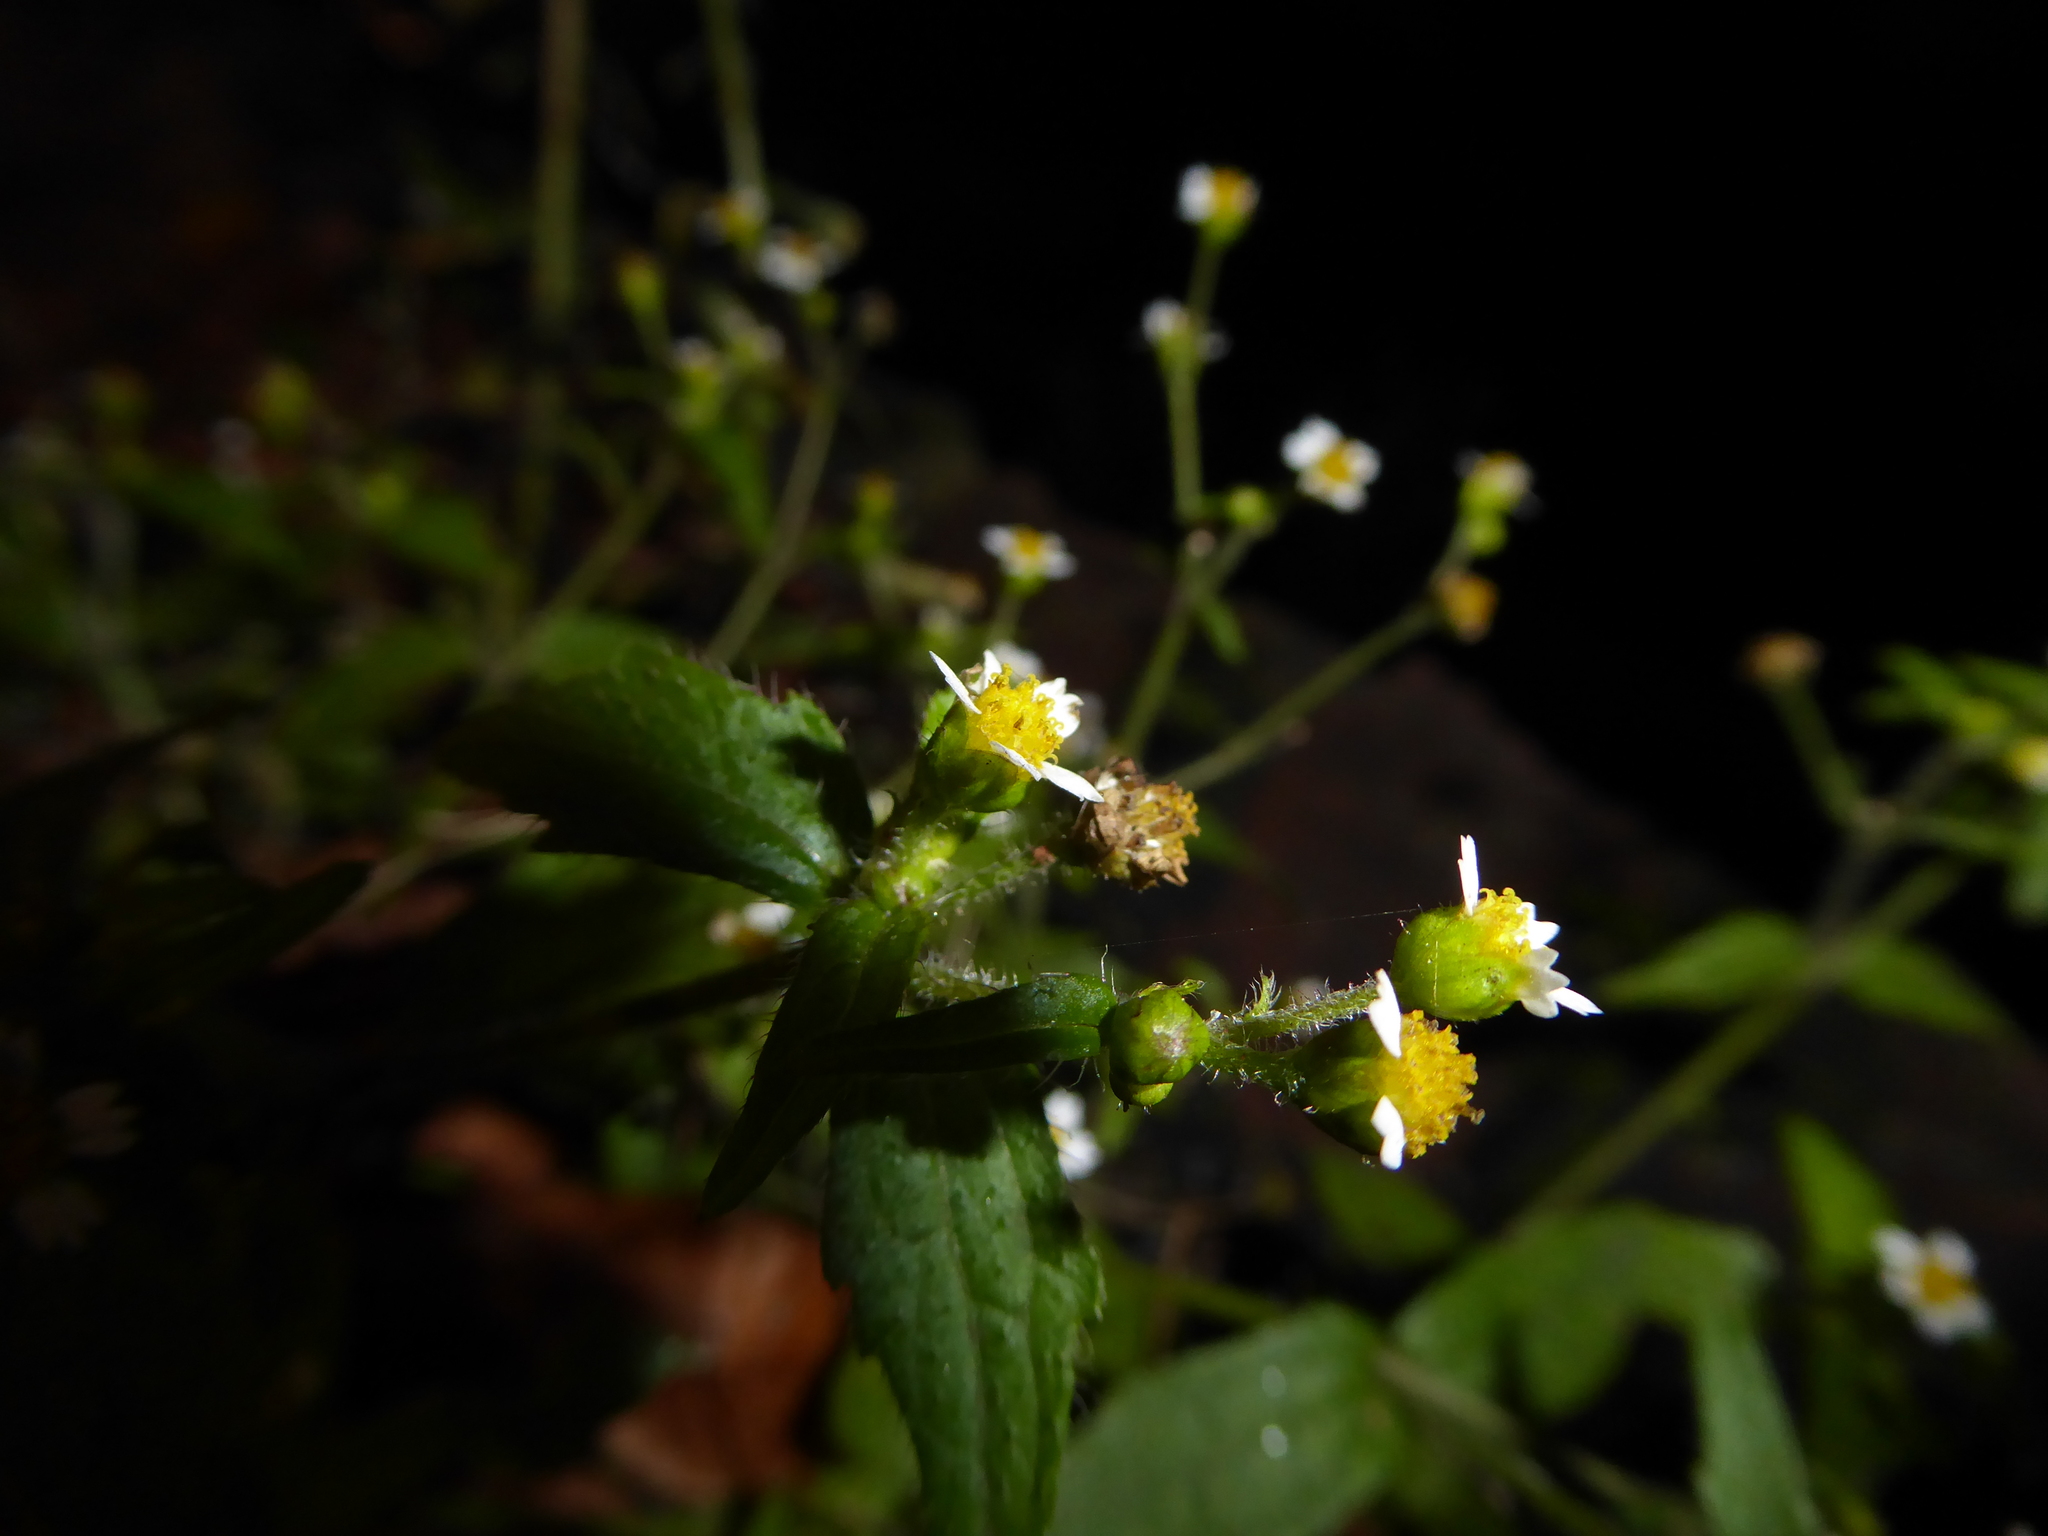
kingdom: Plantae
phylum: Tracheophyta
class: Magnoliopsida
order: Asterales
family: Asteraceae
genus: Galinsoga
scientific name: Galinsoga quadriradiata
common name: Shaggy soldier
